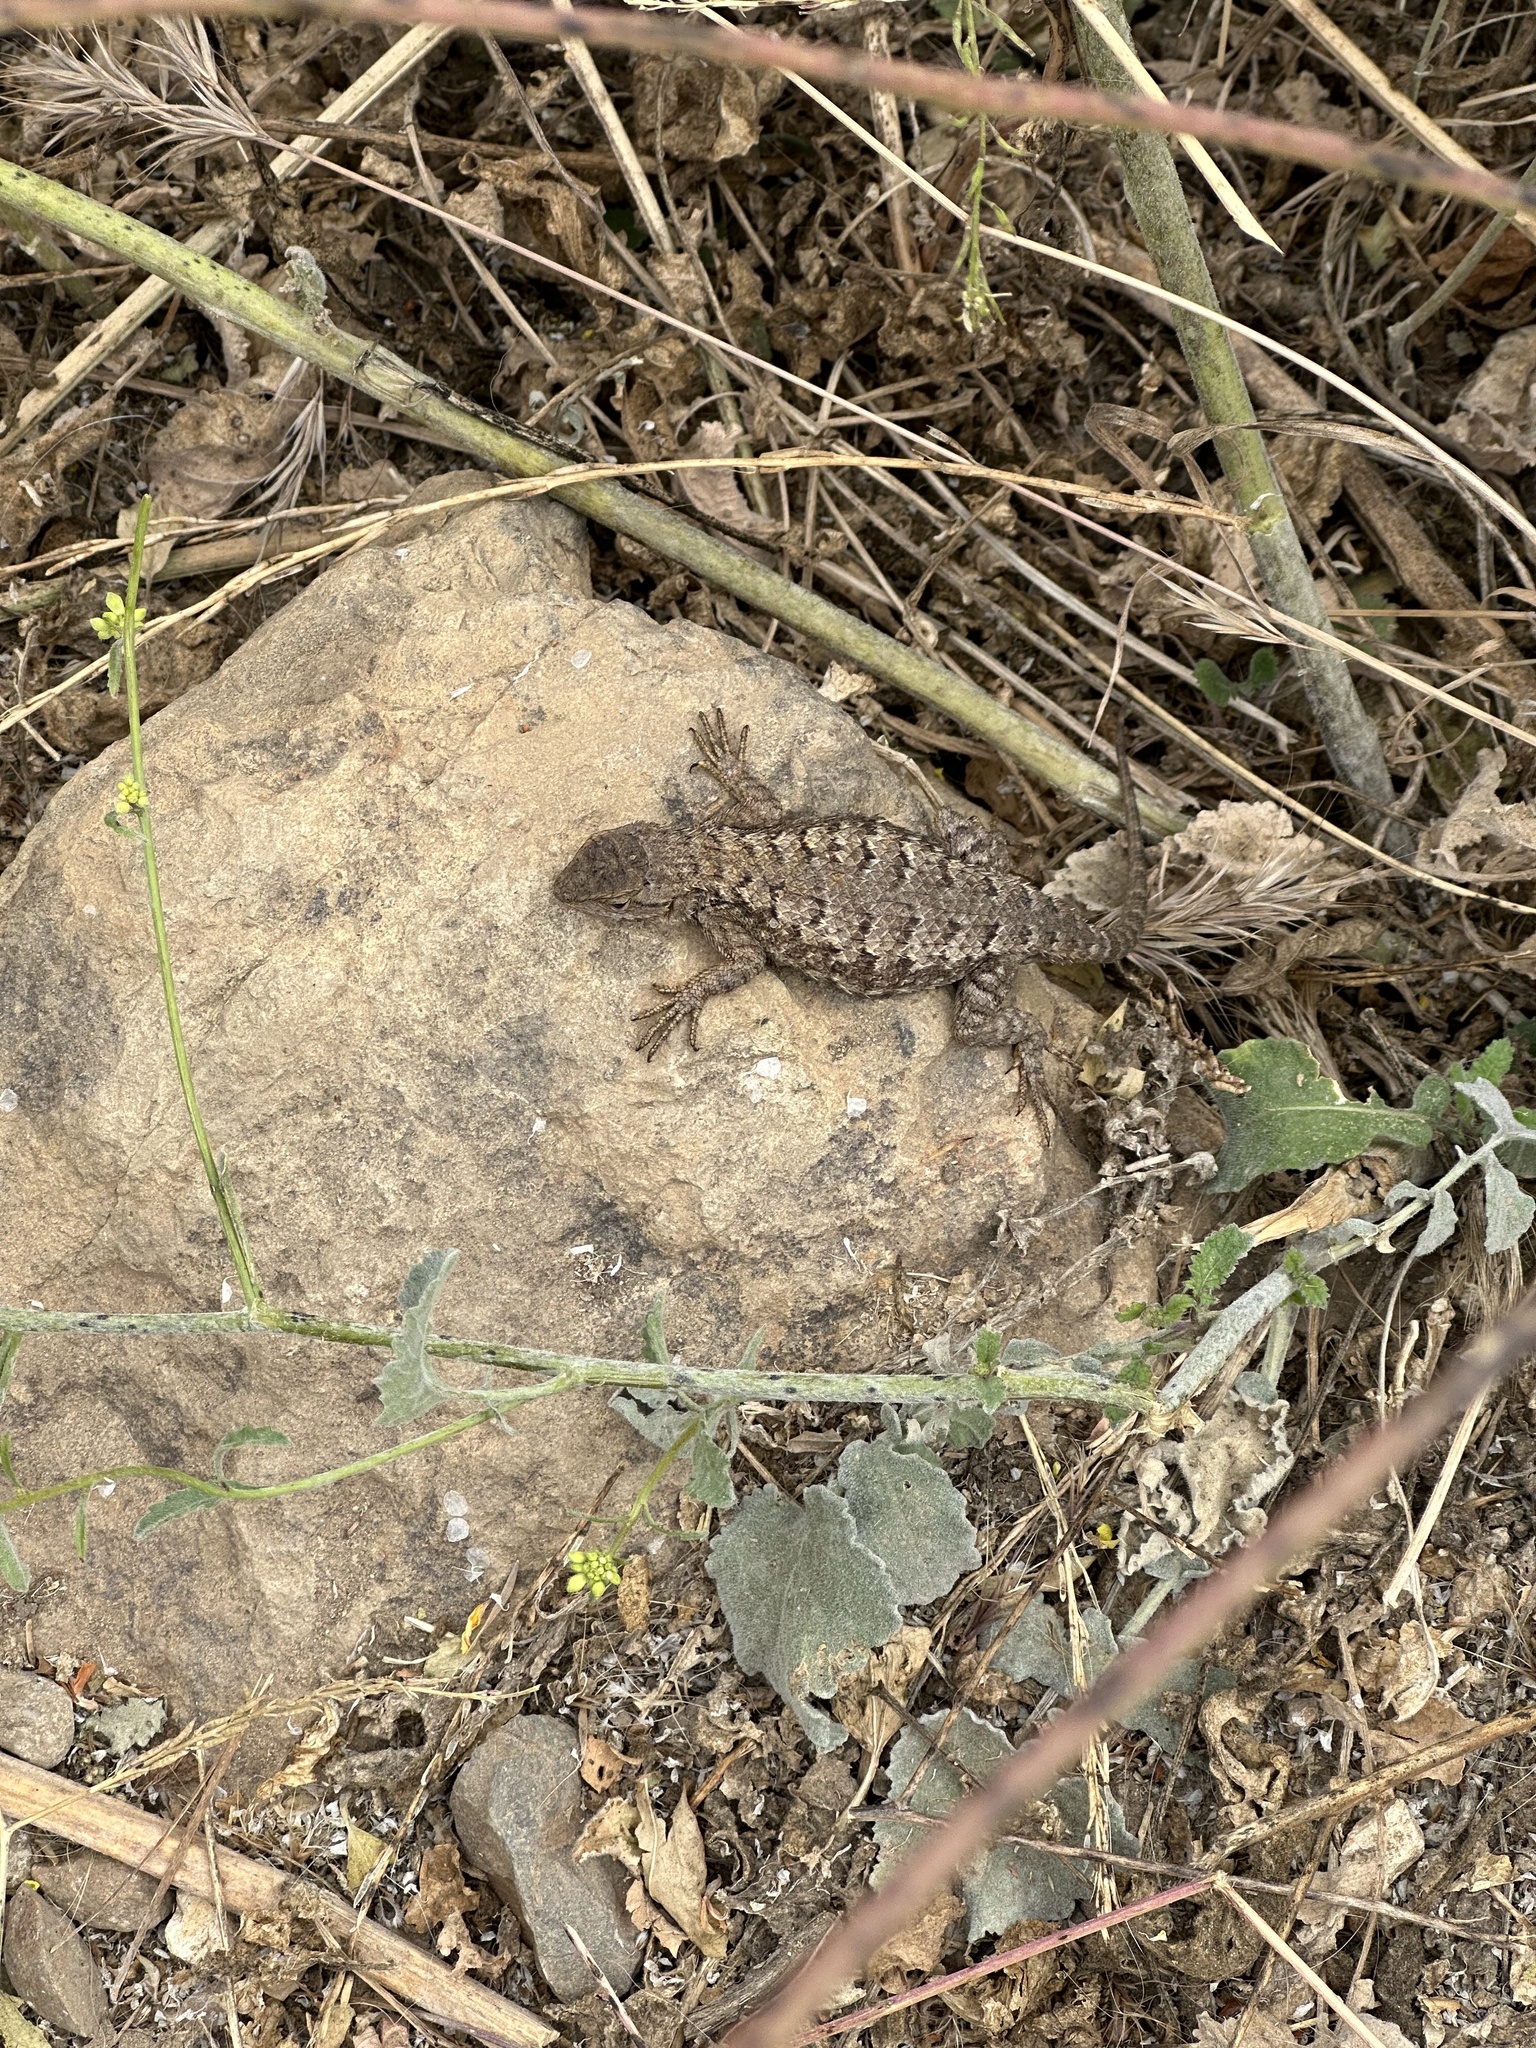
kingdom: Animalia
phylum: Chordata
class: Squamata
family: Phrynosomatidae
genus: Sceloporus
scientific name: Sceloporus occidentalis
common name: Western fence lizard
